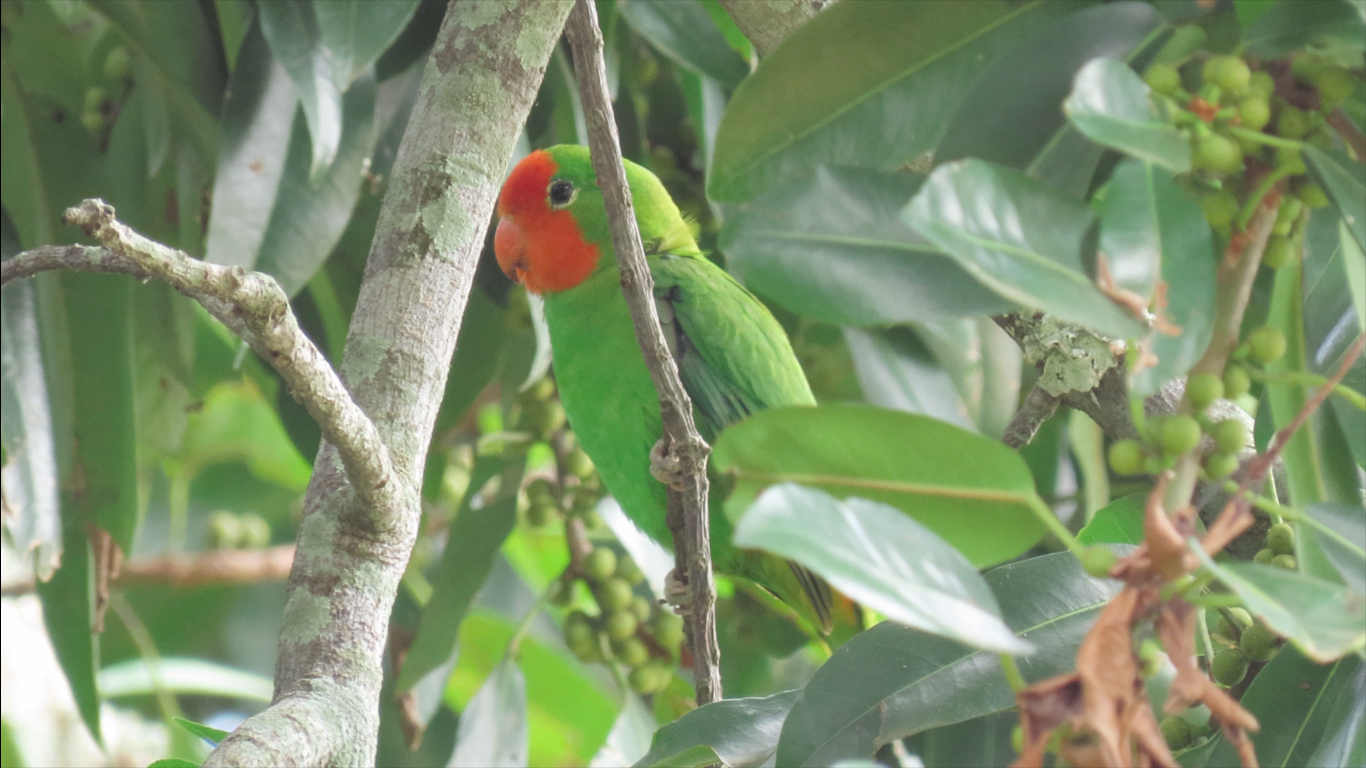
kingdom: Animalia
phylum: Chordata
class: Aves
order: Psittaciformes
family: Psittacidae
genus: Agapornis
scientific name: Agapornis pullarius
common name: Red-headed lovebird
